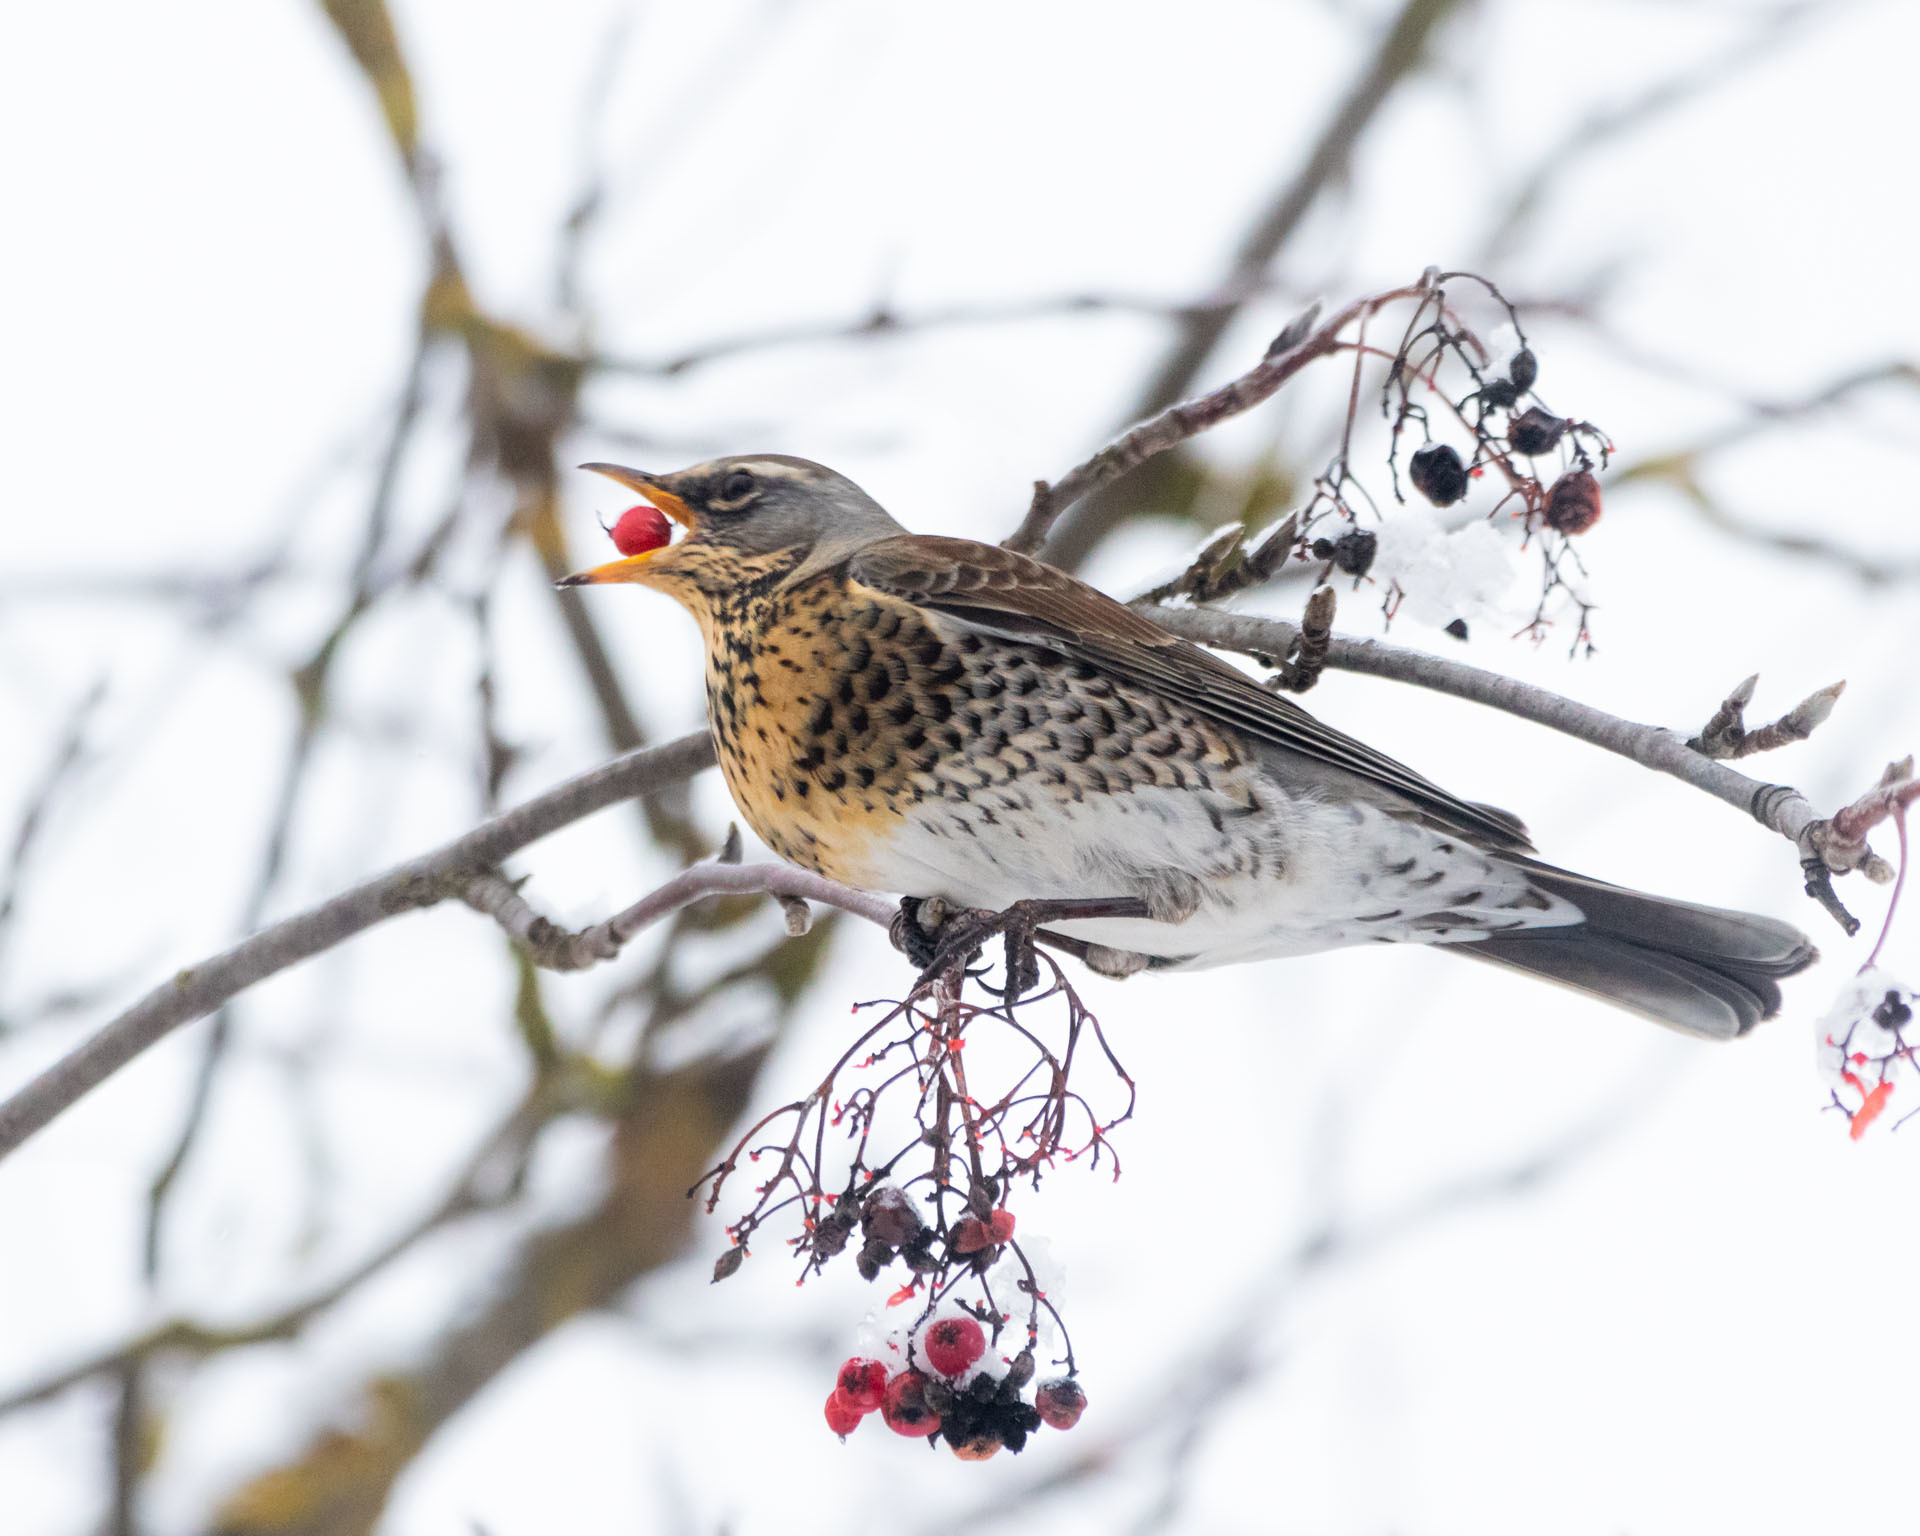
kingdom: Animalia
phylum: Chordata
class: Aves
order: Passeriformes
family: Turdidae
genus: Turdus
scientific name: Turdus pilaris
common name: Fieldfare
